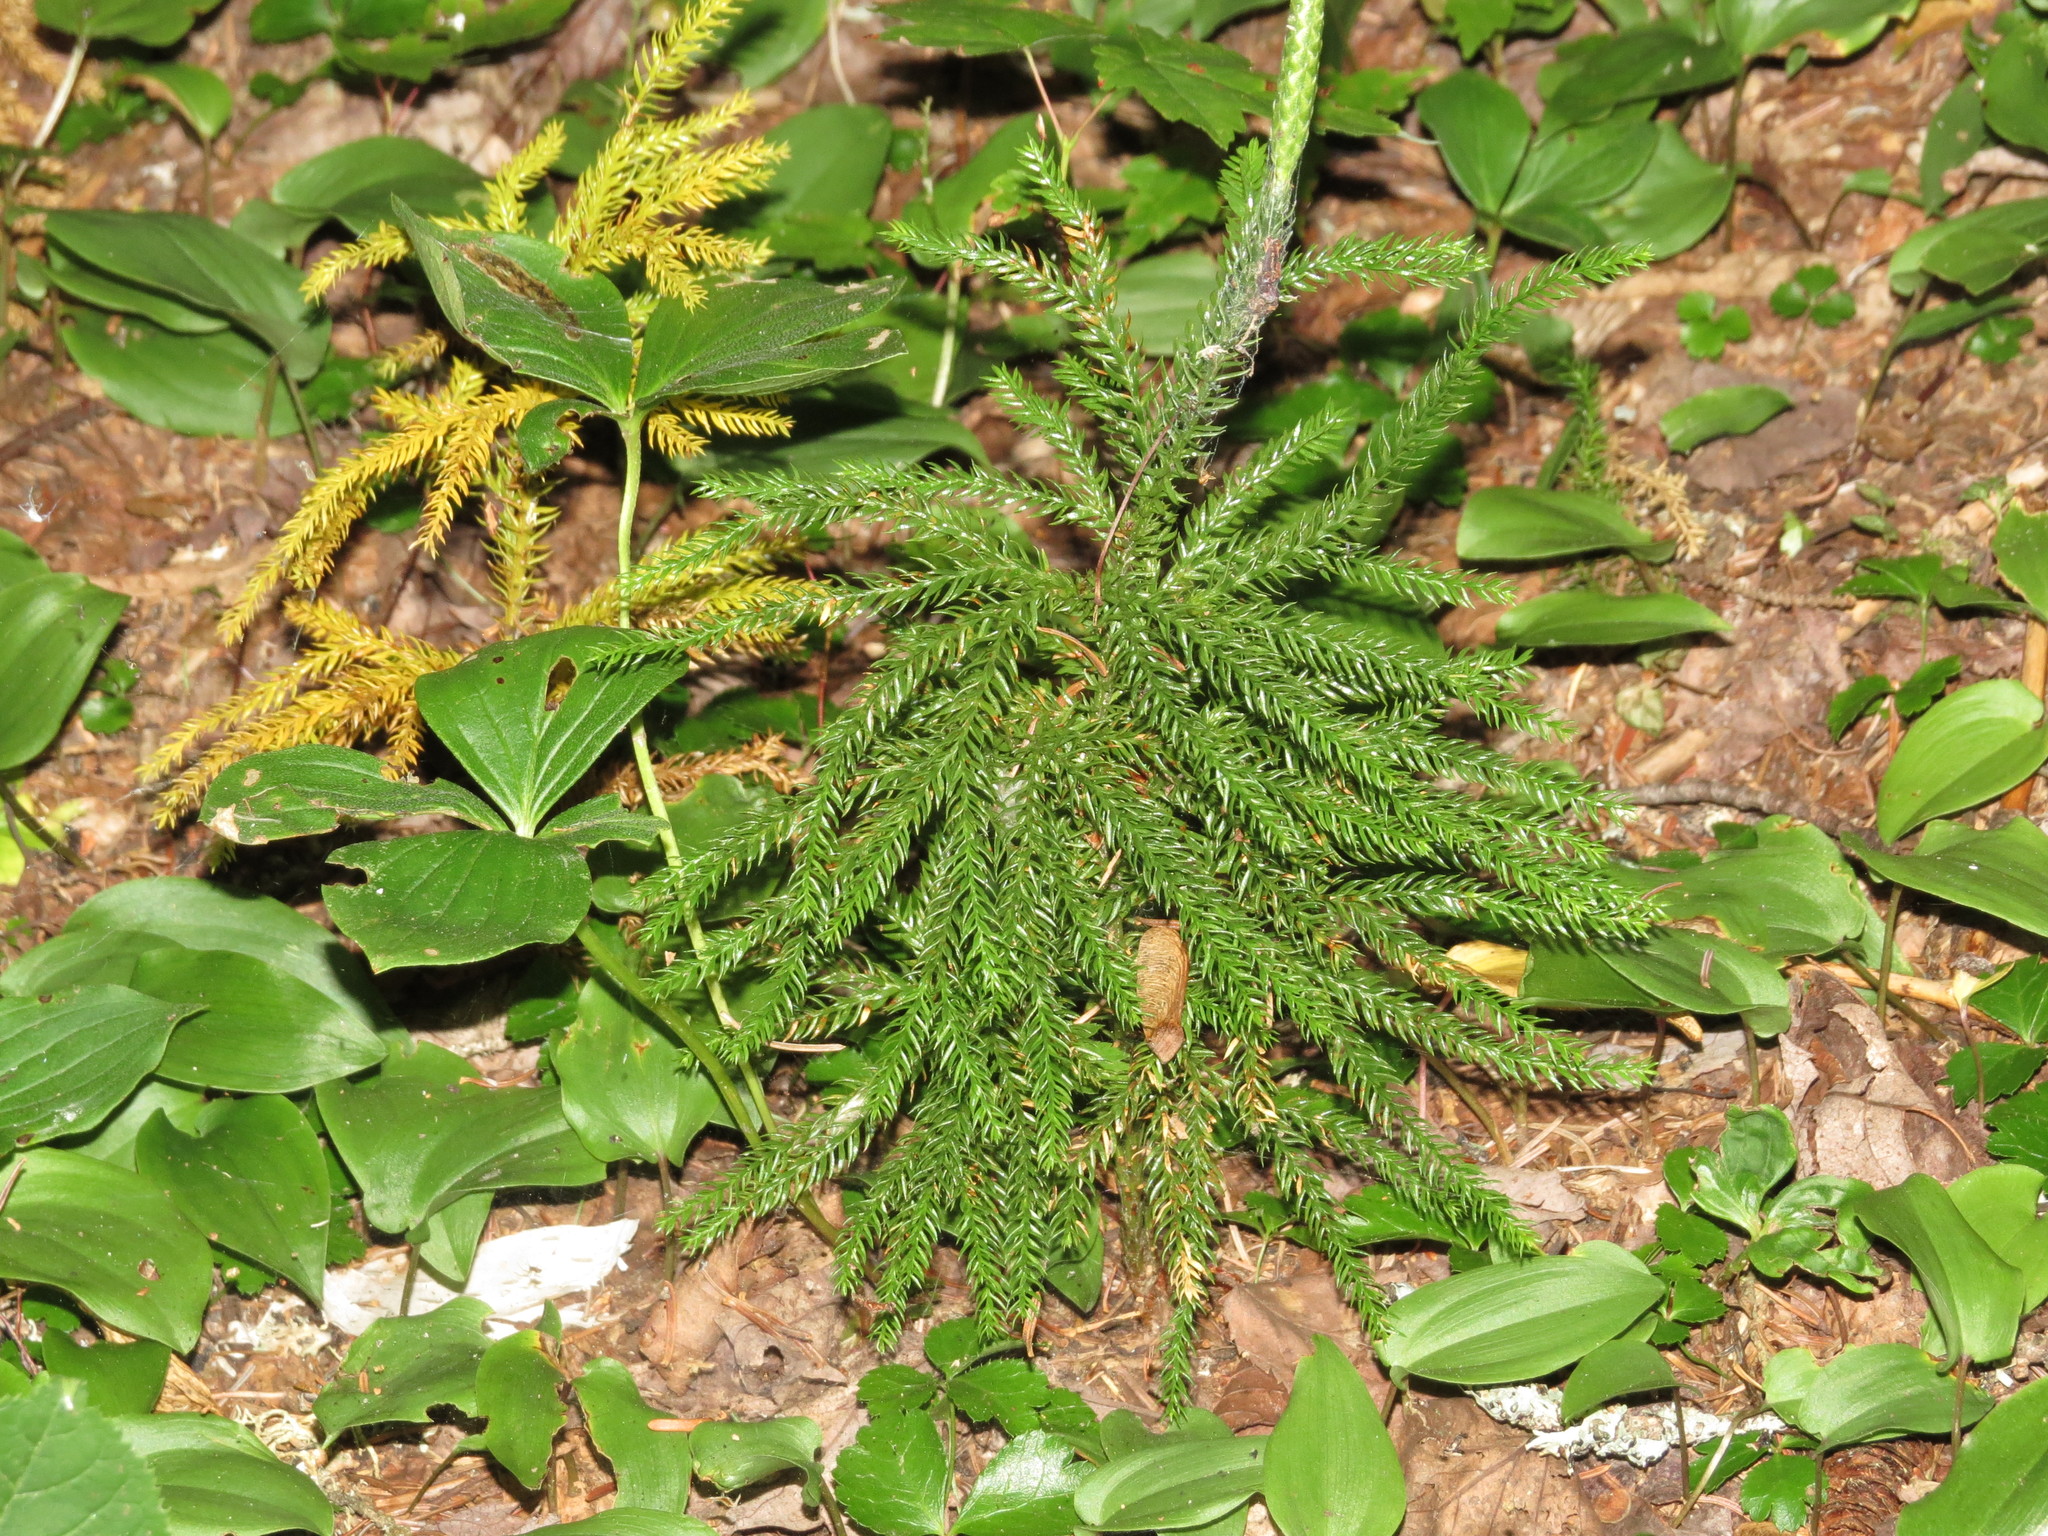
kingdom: Plantae
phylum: Tracheophyta
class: Lycopodiopsida
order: Lycopodiales
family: Lycopodiaceae
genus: Dendrolycopodium
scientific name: Dendrolycopodium hickeyi
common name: Hickey's clubmoss
